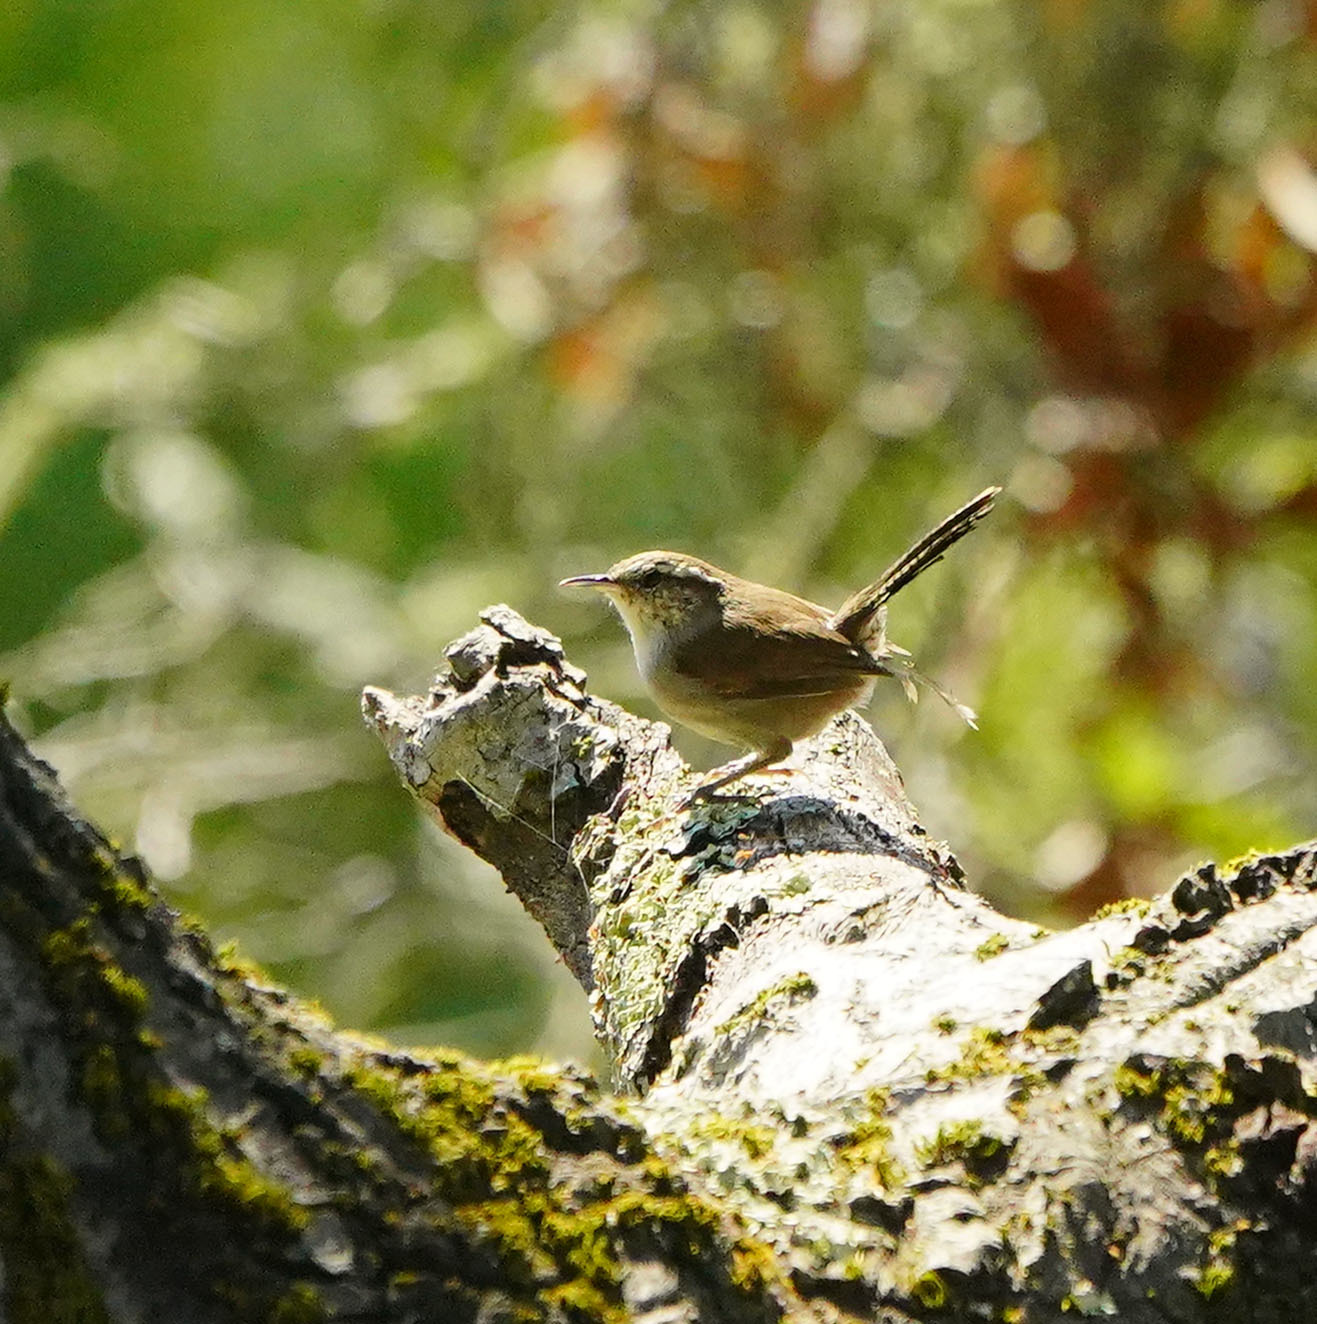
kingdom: Animalia
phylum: Chordata
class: Aves
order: Passeriformes
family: Troglodytidae
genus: Thryomanes
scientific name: Thryomanes bewickii
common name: Bewick's wren
